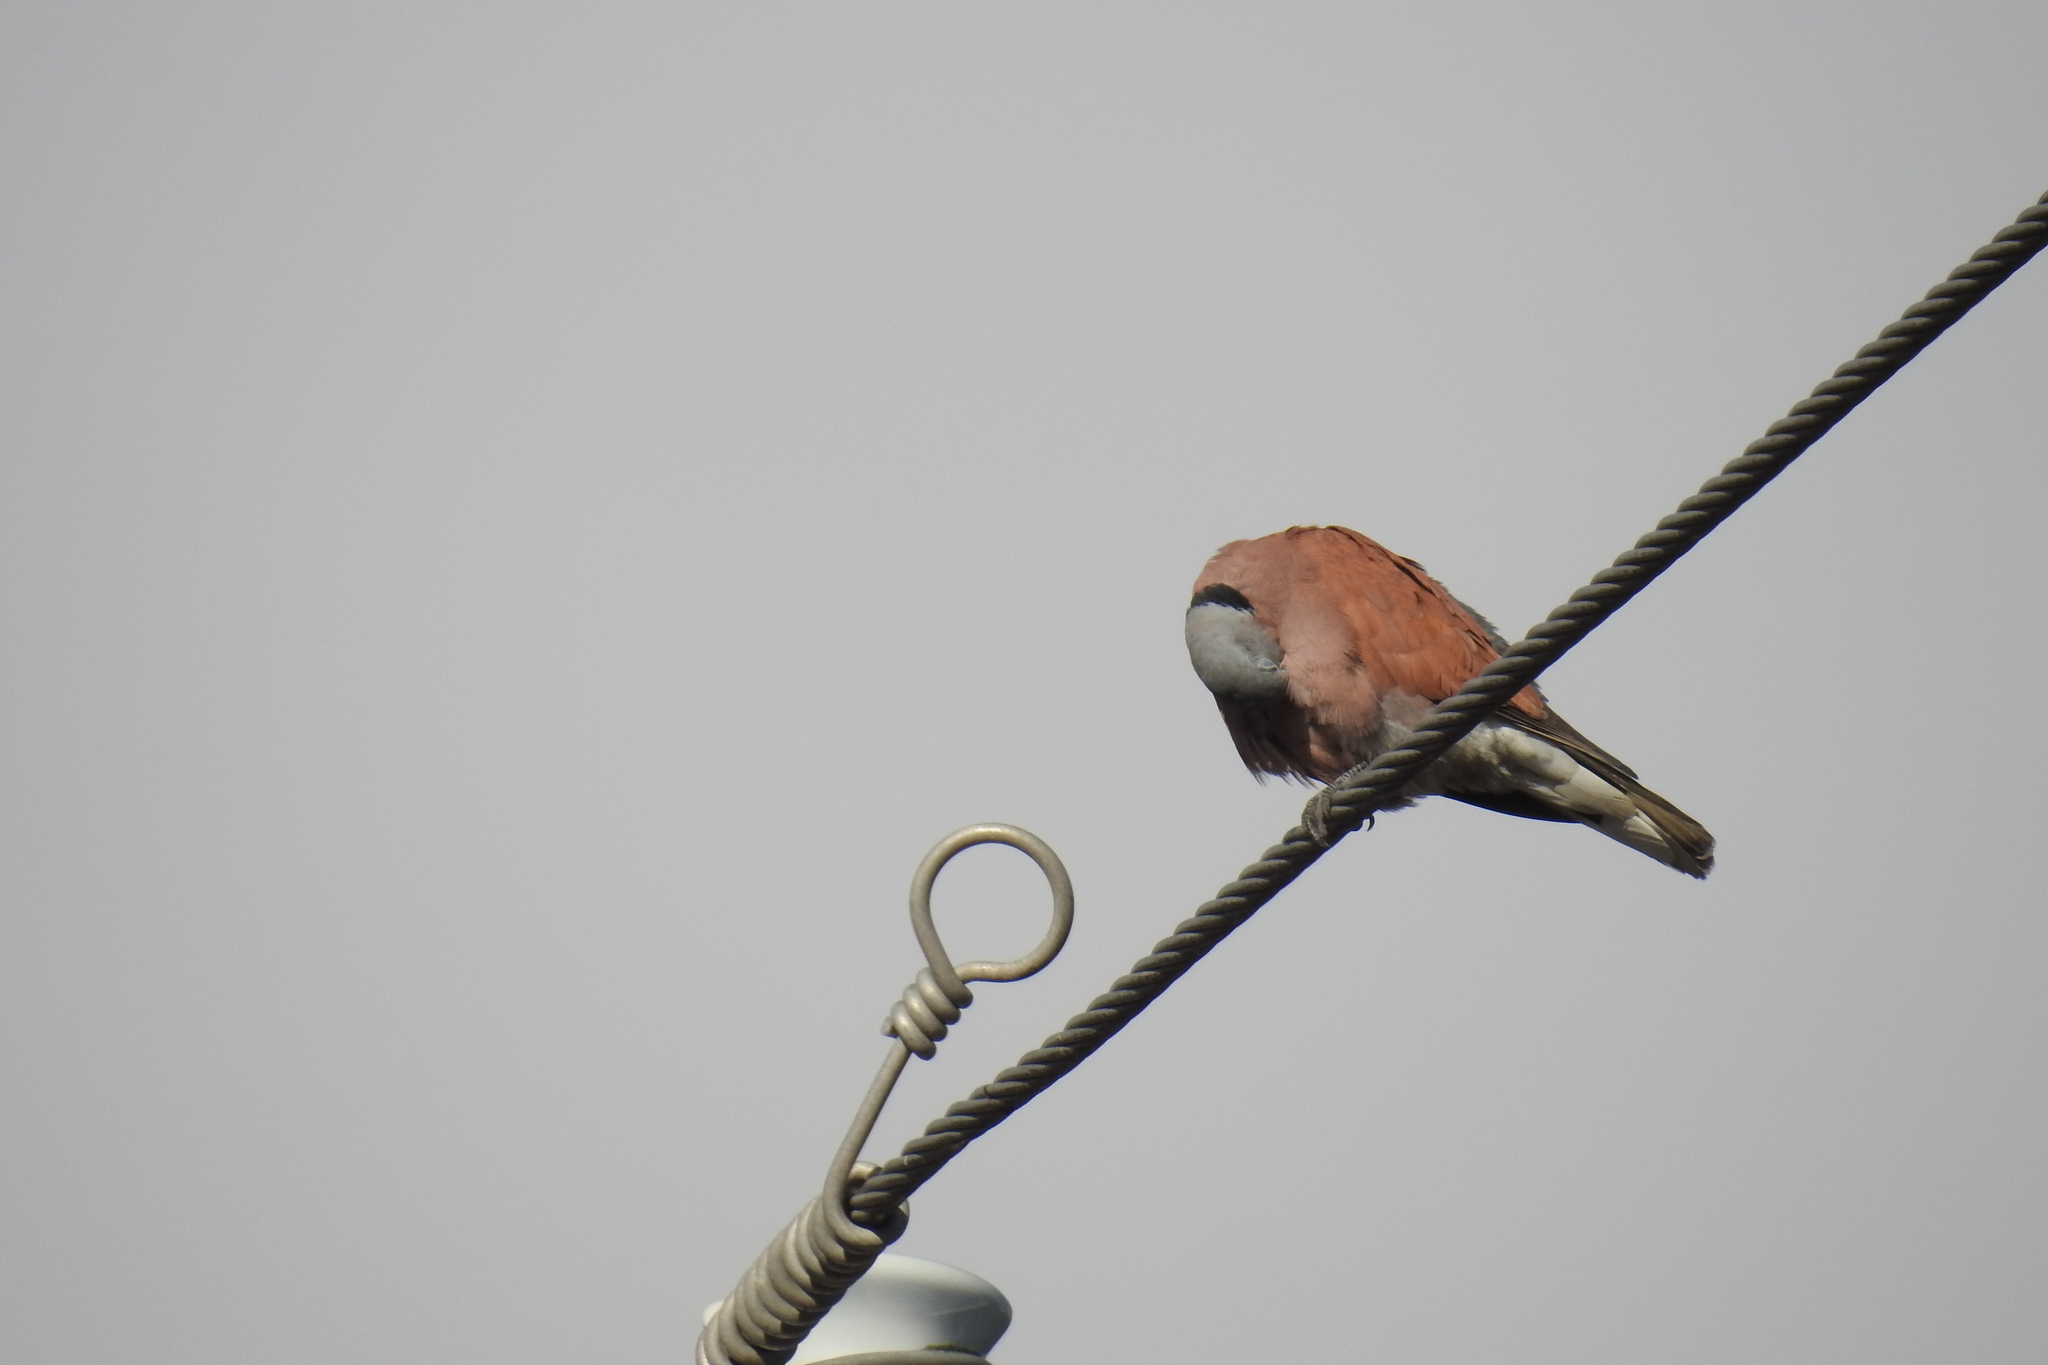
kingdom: Animalia
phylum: Chordata
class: Aves
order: Columbiformes
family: Columbidae
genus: Streptopelia
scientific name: Streptopelia tranquebarica
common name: Red turtle dove
